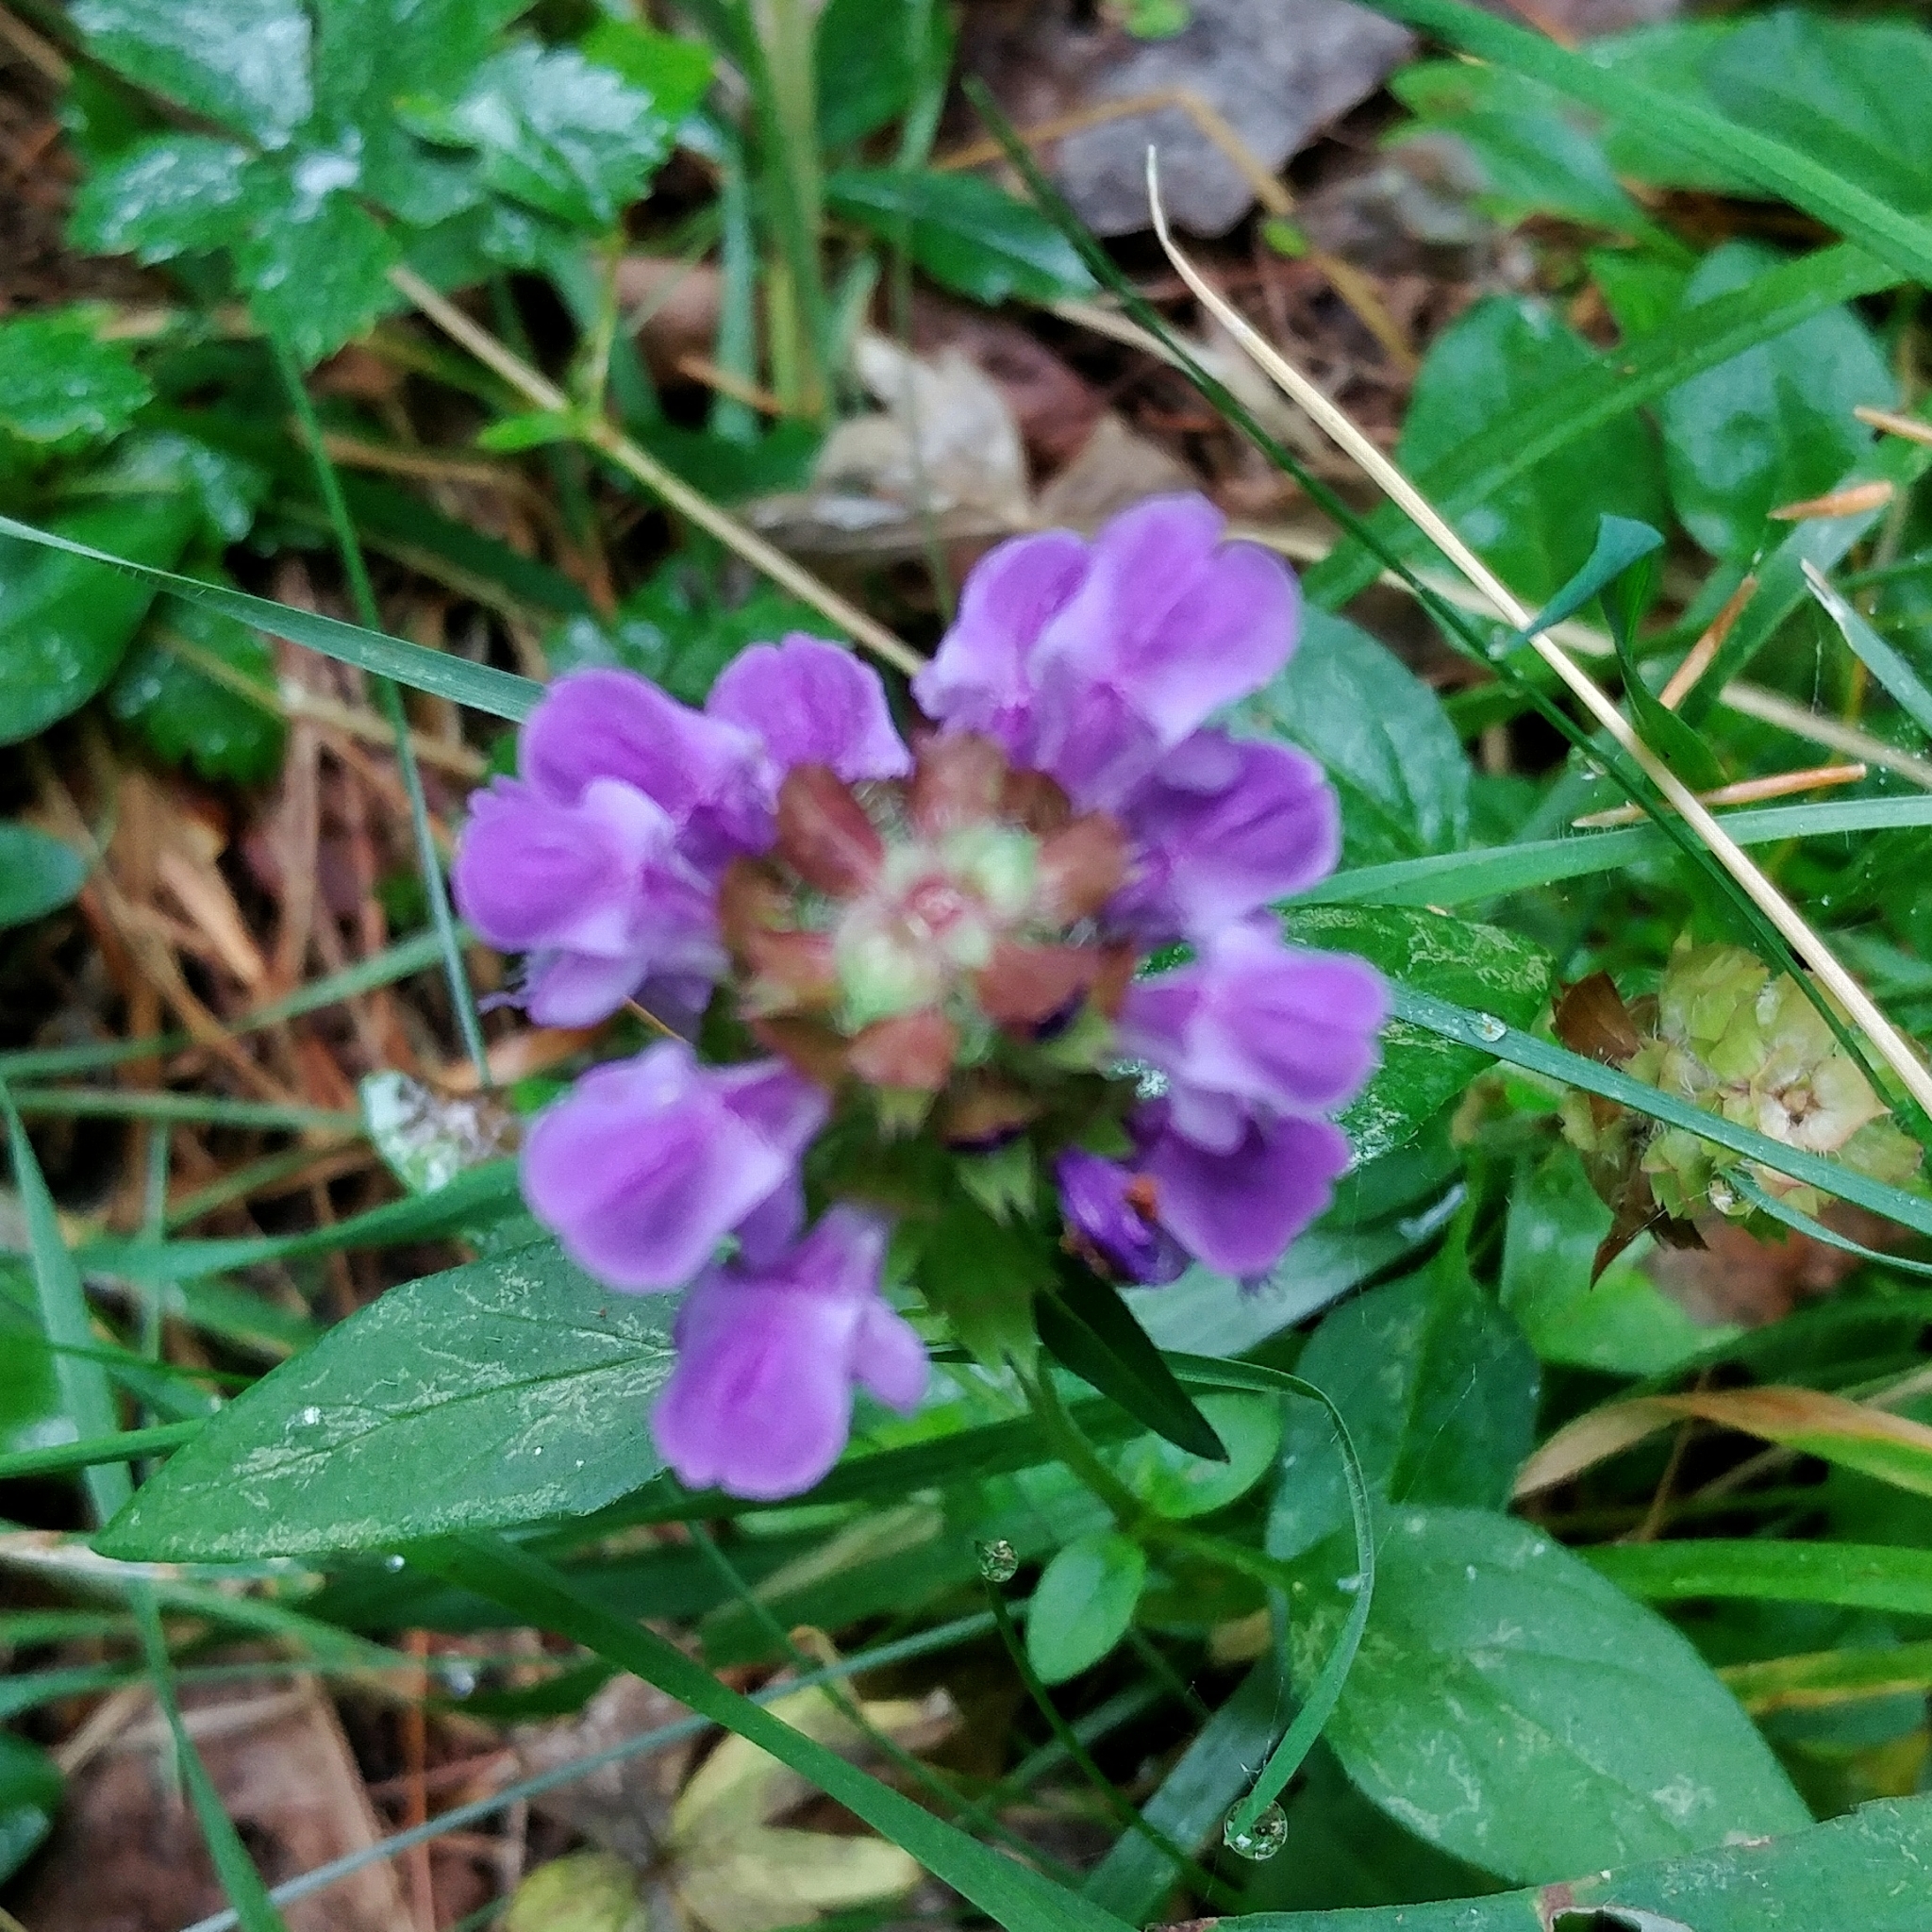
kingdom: Plantae
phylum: Tracheophyta
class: Magnoliopsida
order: Lamiales
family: Lamiaceae
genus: Prunella
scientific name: Prunella vulgaris
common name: Heal-all
